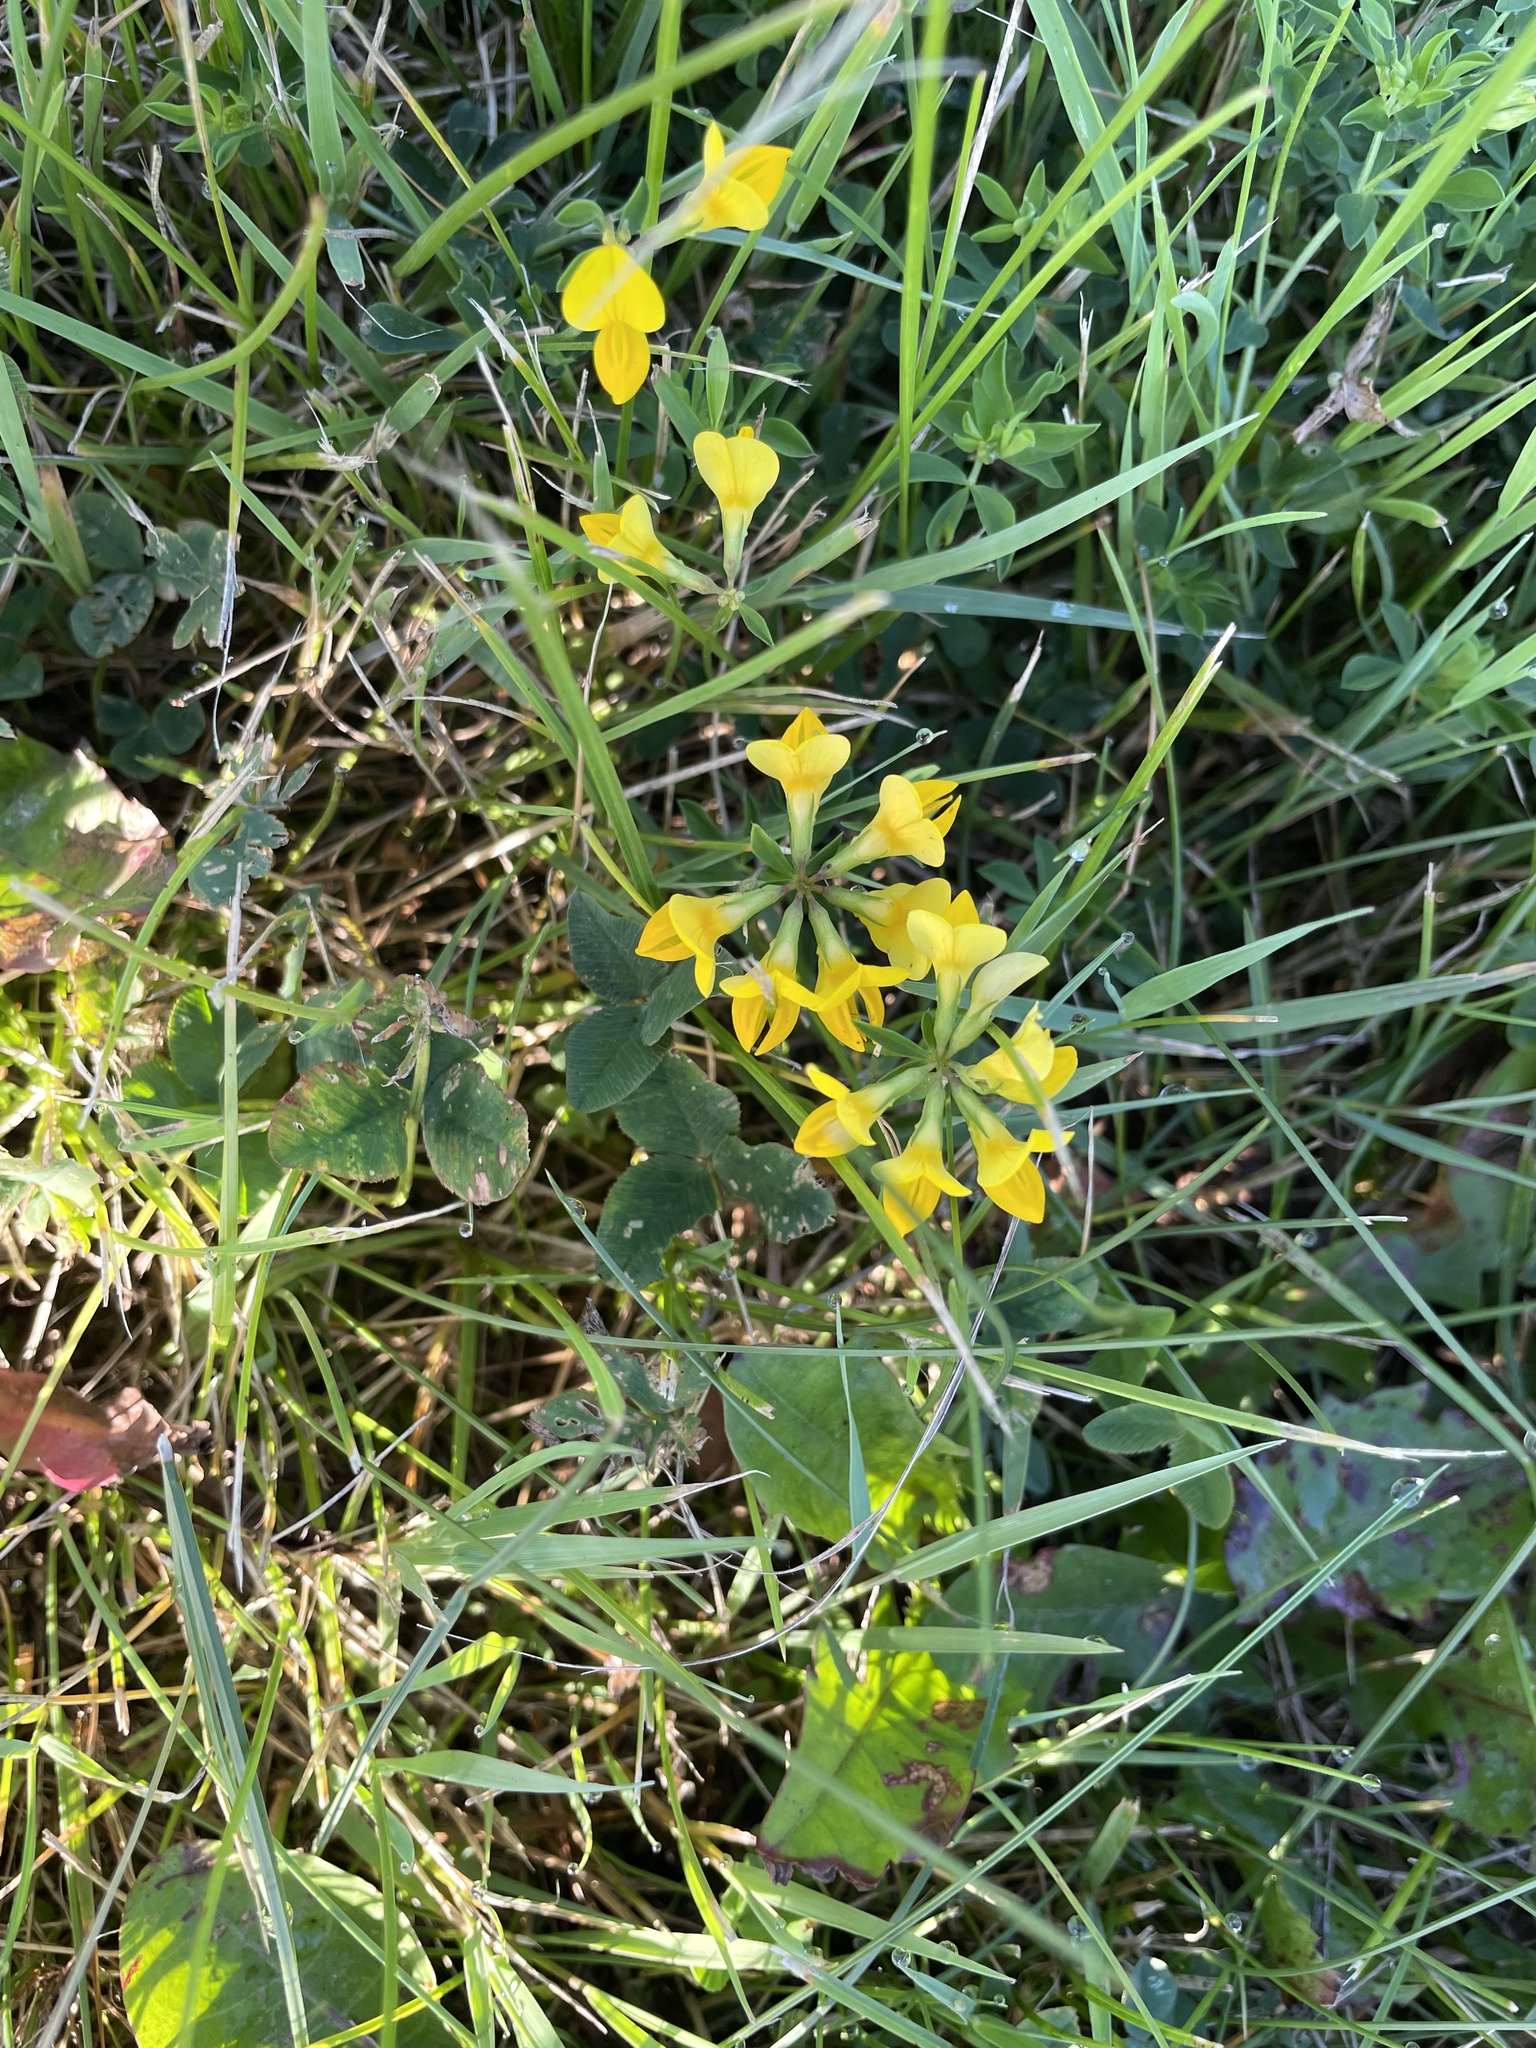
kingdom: Plantae
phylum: Tracheophyta
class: Magnoliopsida
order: Fabales
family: Fabaceae
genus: Lotus
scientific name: Lotus corniculatus
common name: Common bird's-foot-trefoil
